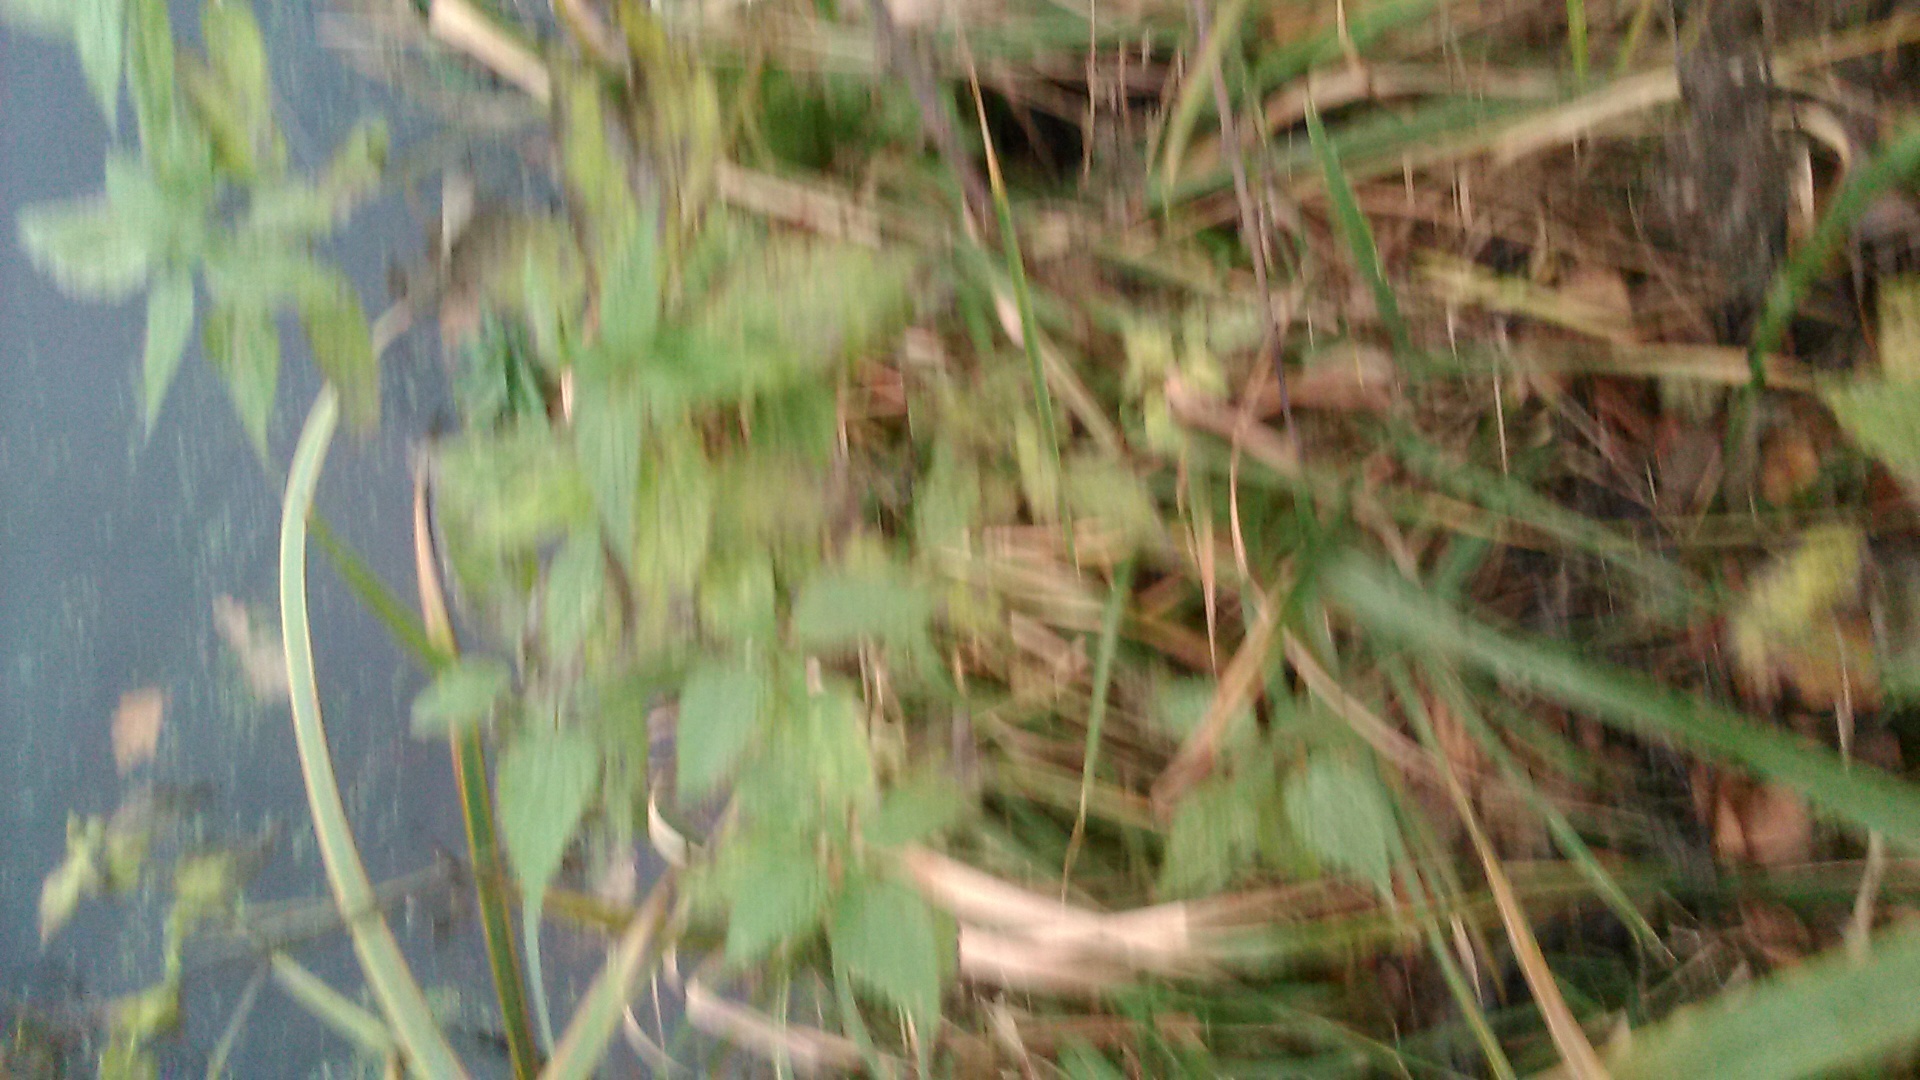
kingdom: Plantae
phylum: Tracheophyta
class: Magnoliopsida
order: Rosales
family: Urticaceae
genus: Urtica
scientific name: Urtica dioica
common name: Common nettle
